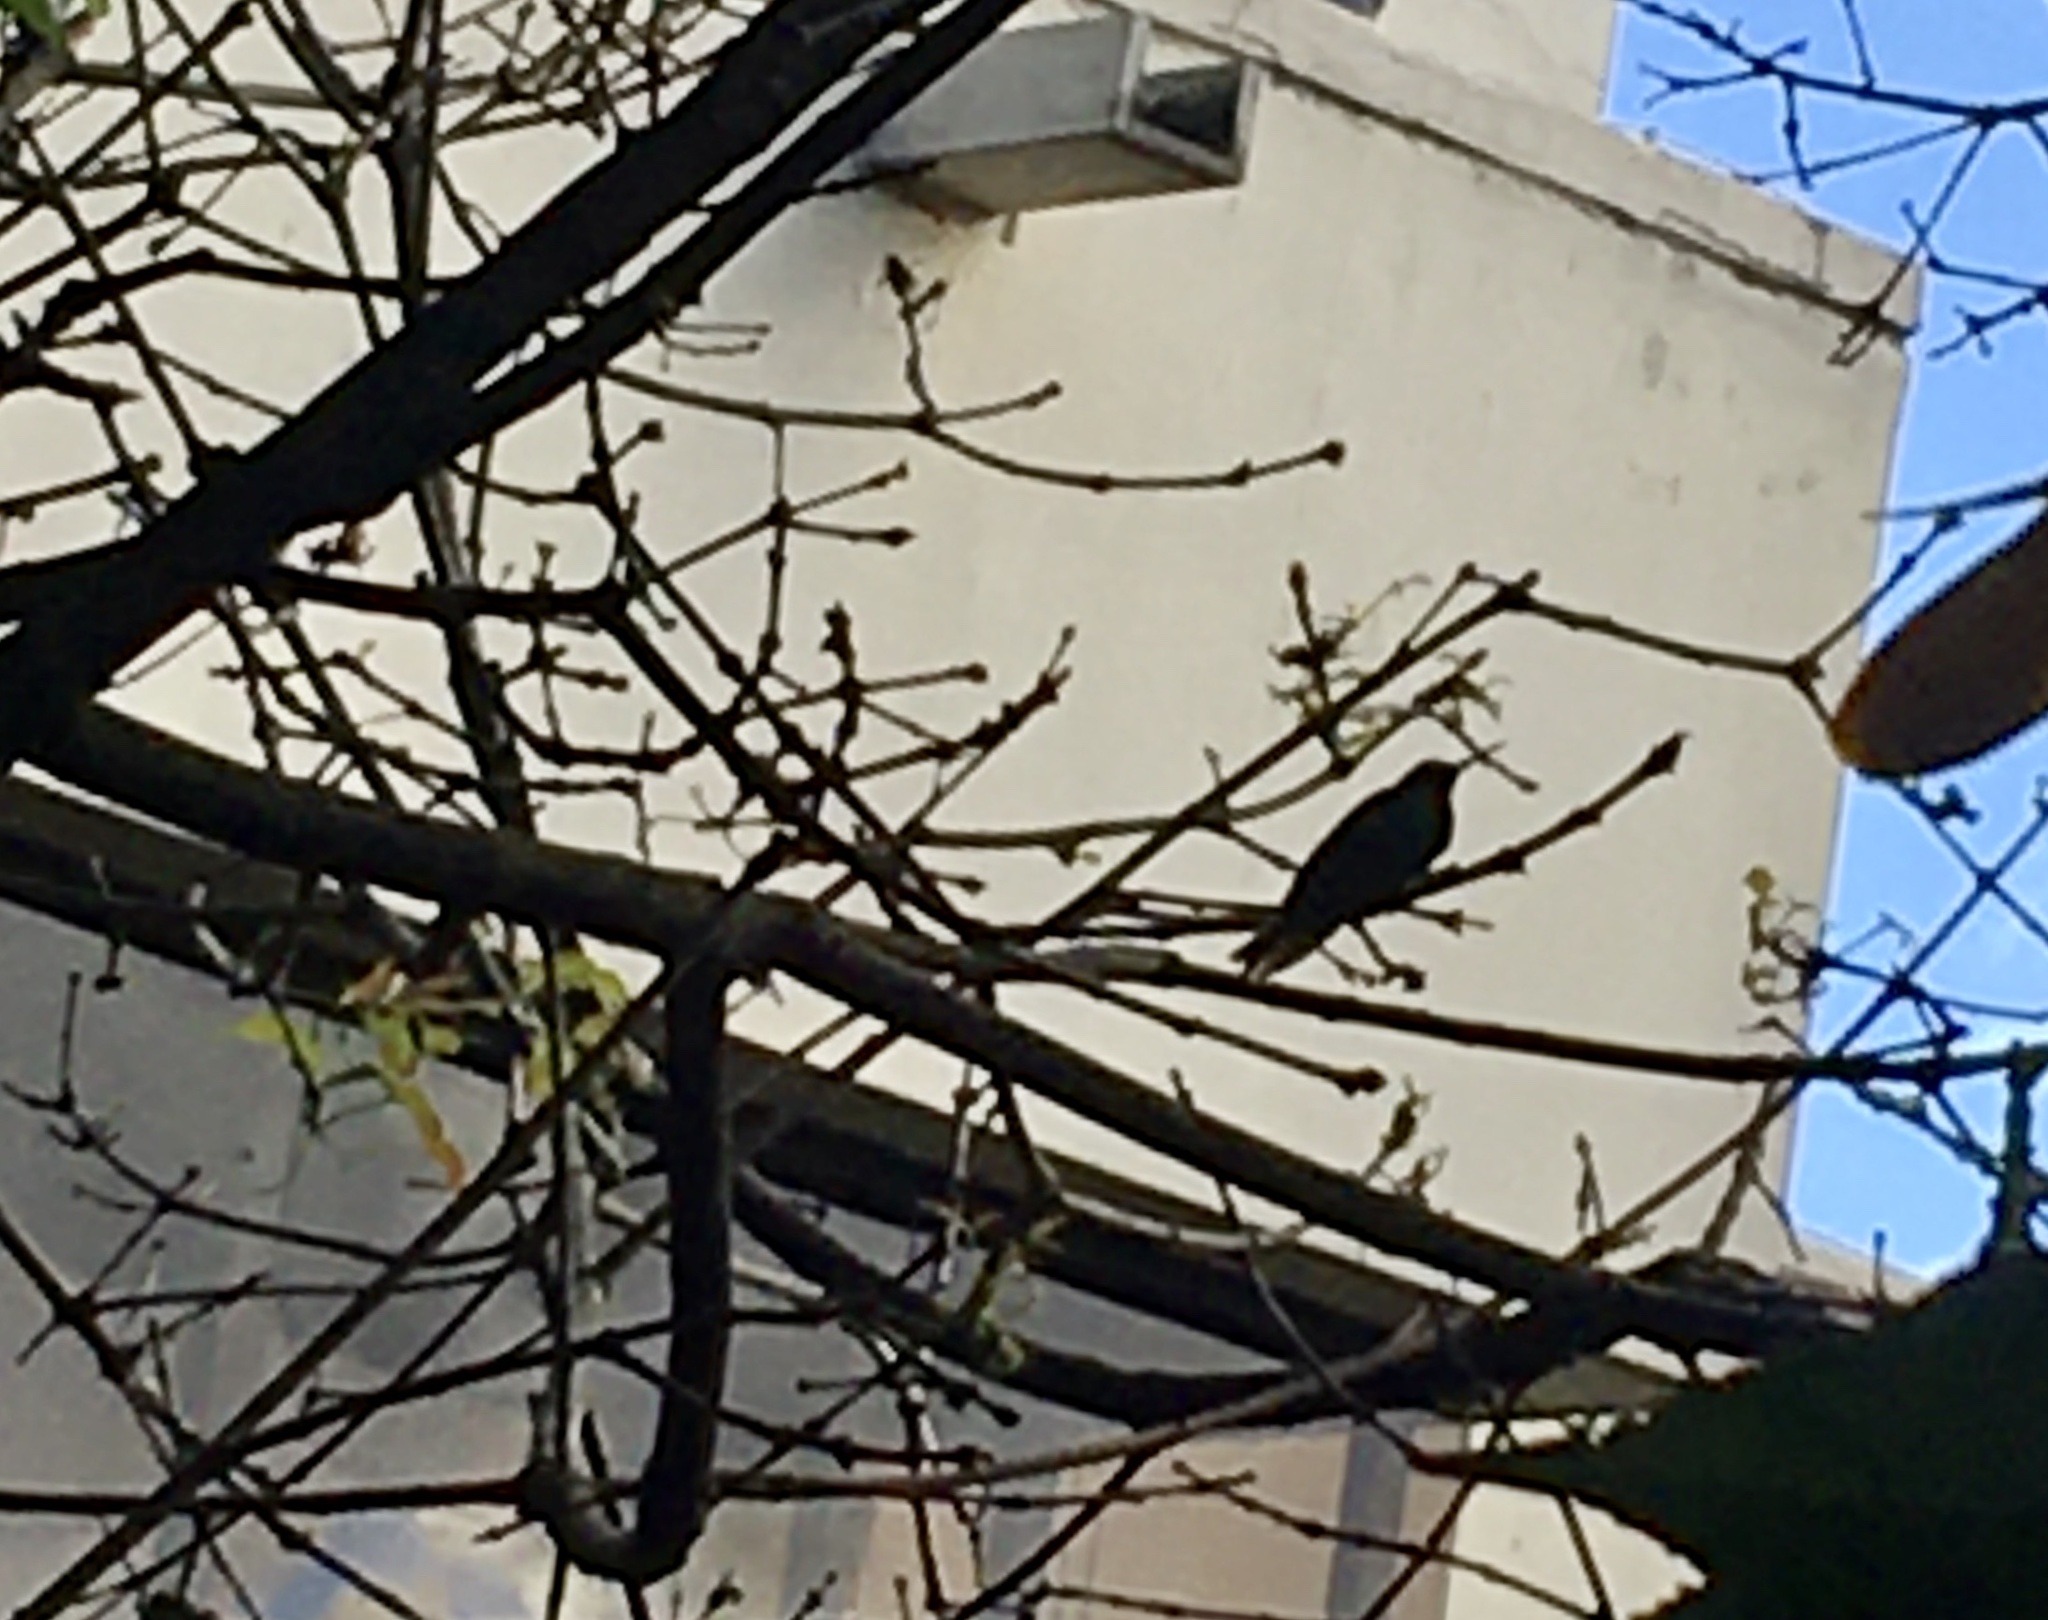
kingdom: Animalia
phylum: Chordata
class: Aves
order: Apodiformes
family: Trochilidae
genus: Colibri
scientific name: Colibri coruscans
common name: Sparkling violetear
